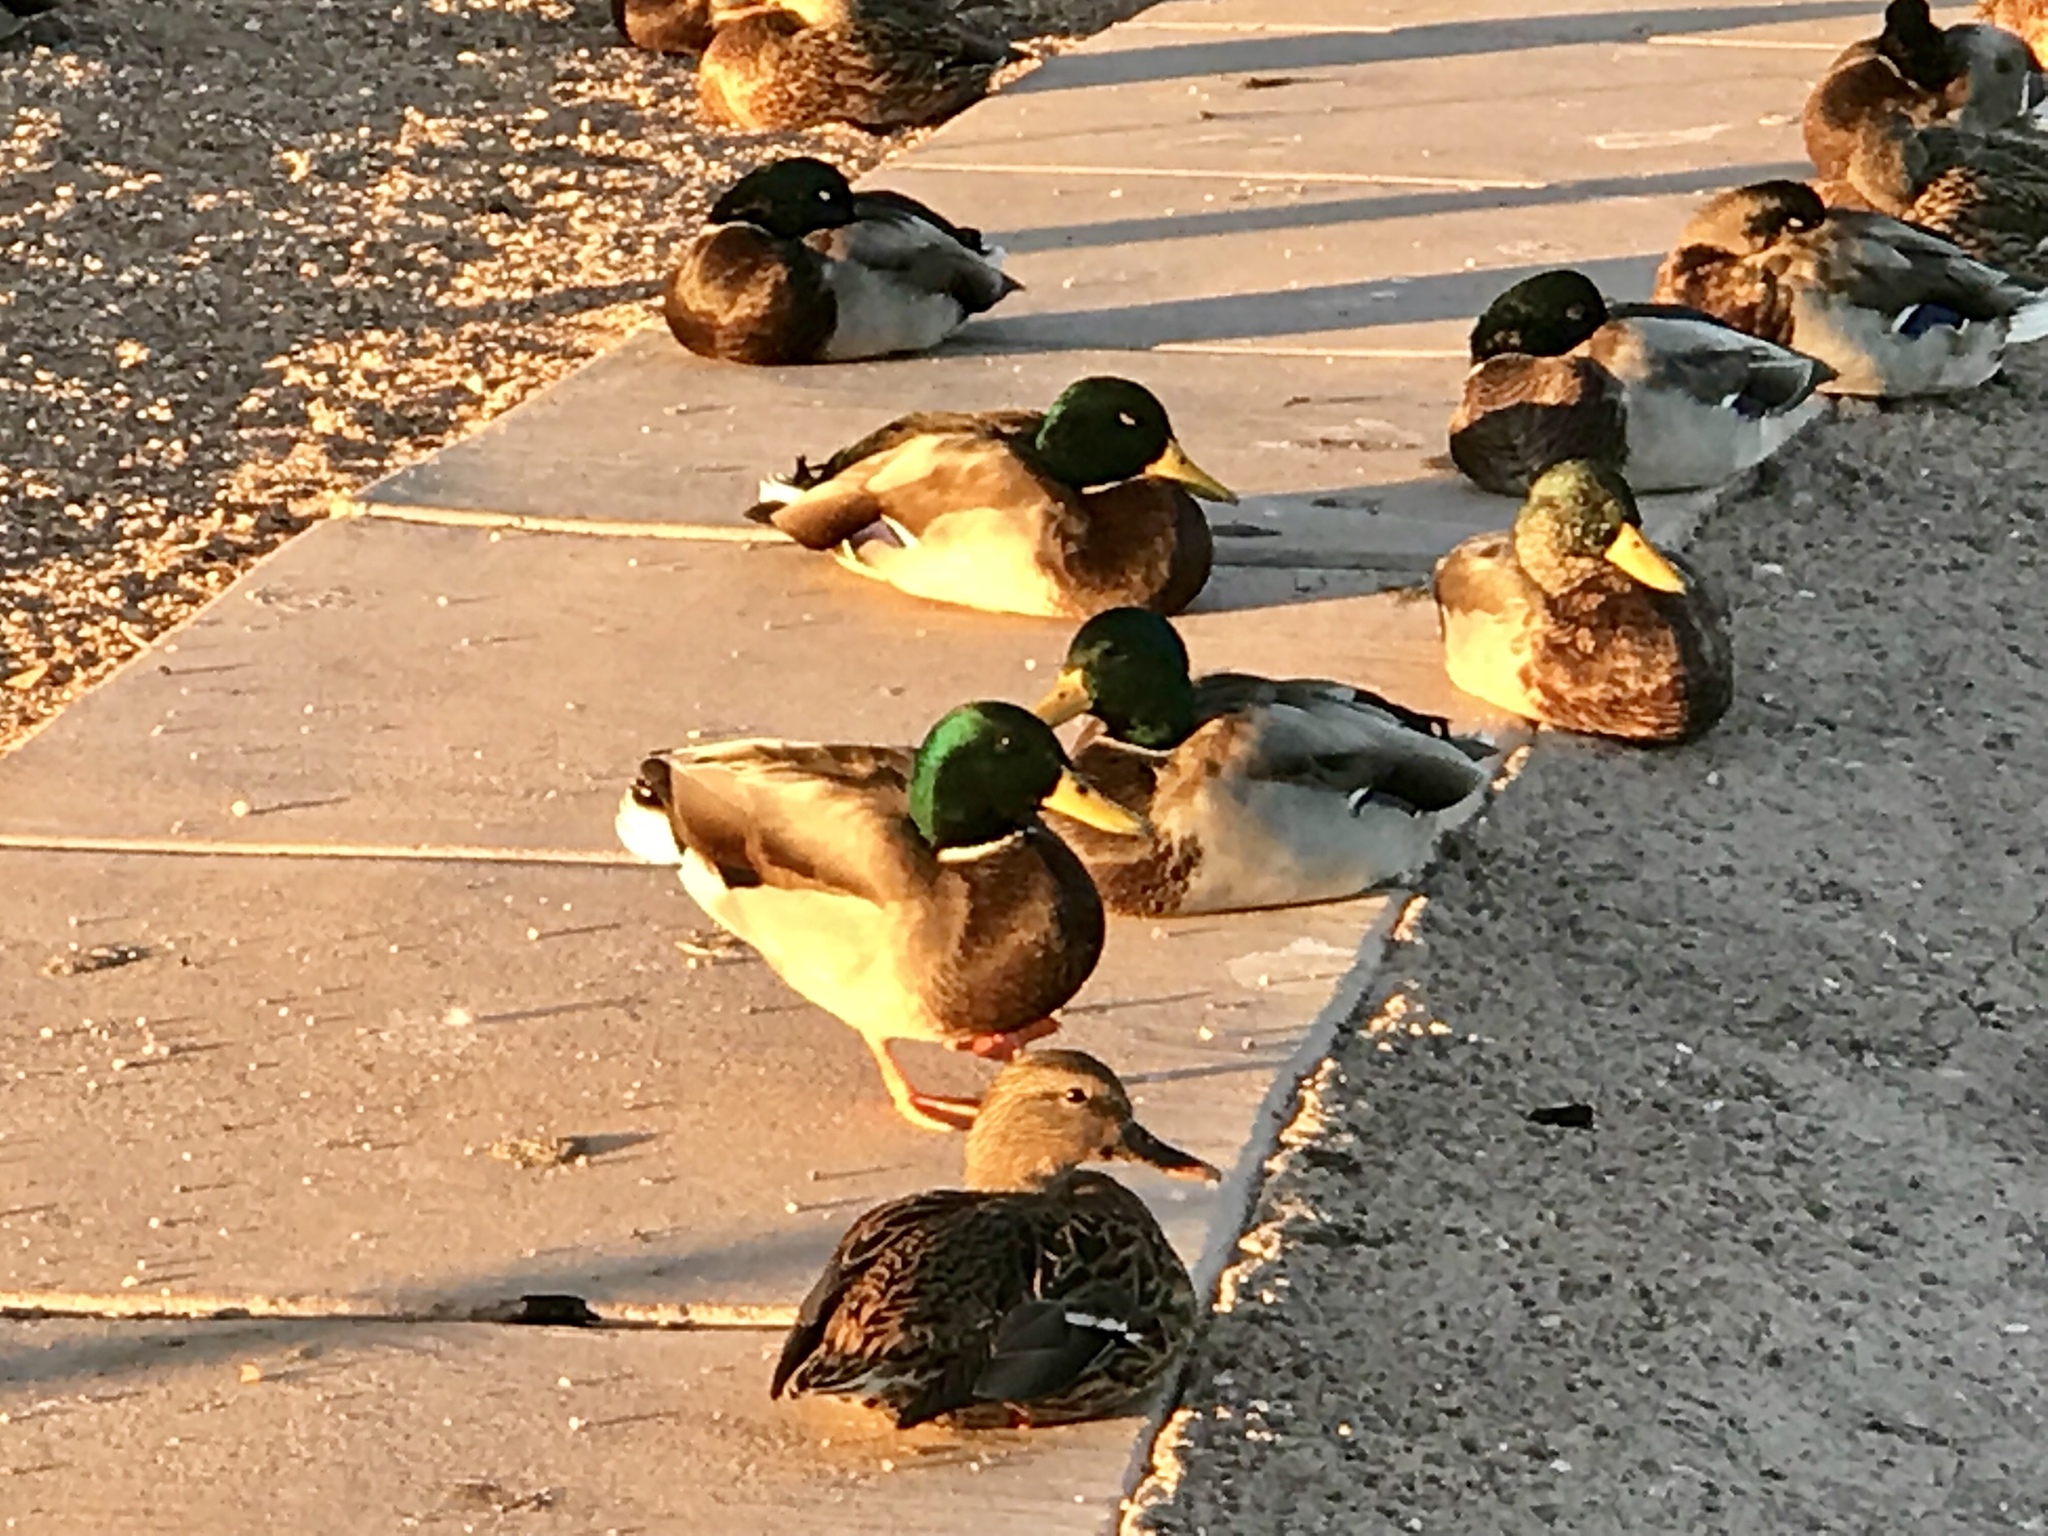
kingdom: Animalia
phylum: Chordata
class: Aves
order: Anseriformes
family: Anatidae
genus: Anas
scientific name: Anas platyrhynchos
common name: Mallard
